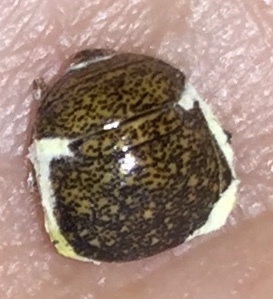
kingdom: Animalia
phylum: Arthropoda
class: Insecta
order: Hemiptera
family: Plataspidae
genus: Megacopta
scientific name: Megacopta cribraria
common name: Bean plataspid
